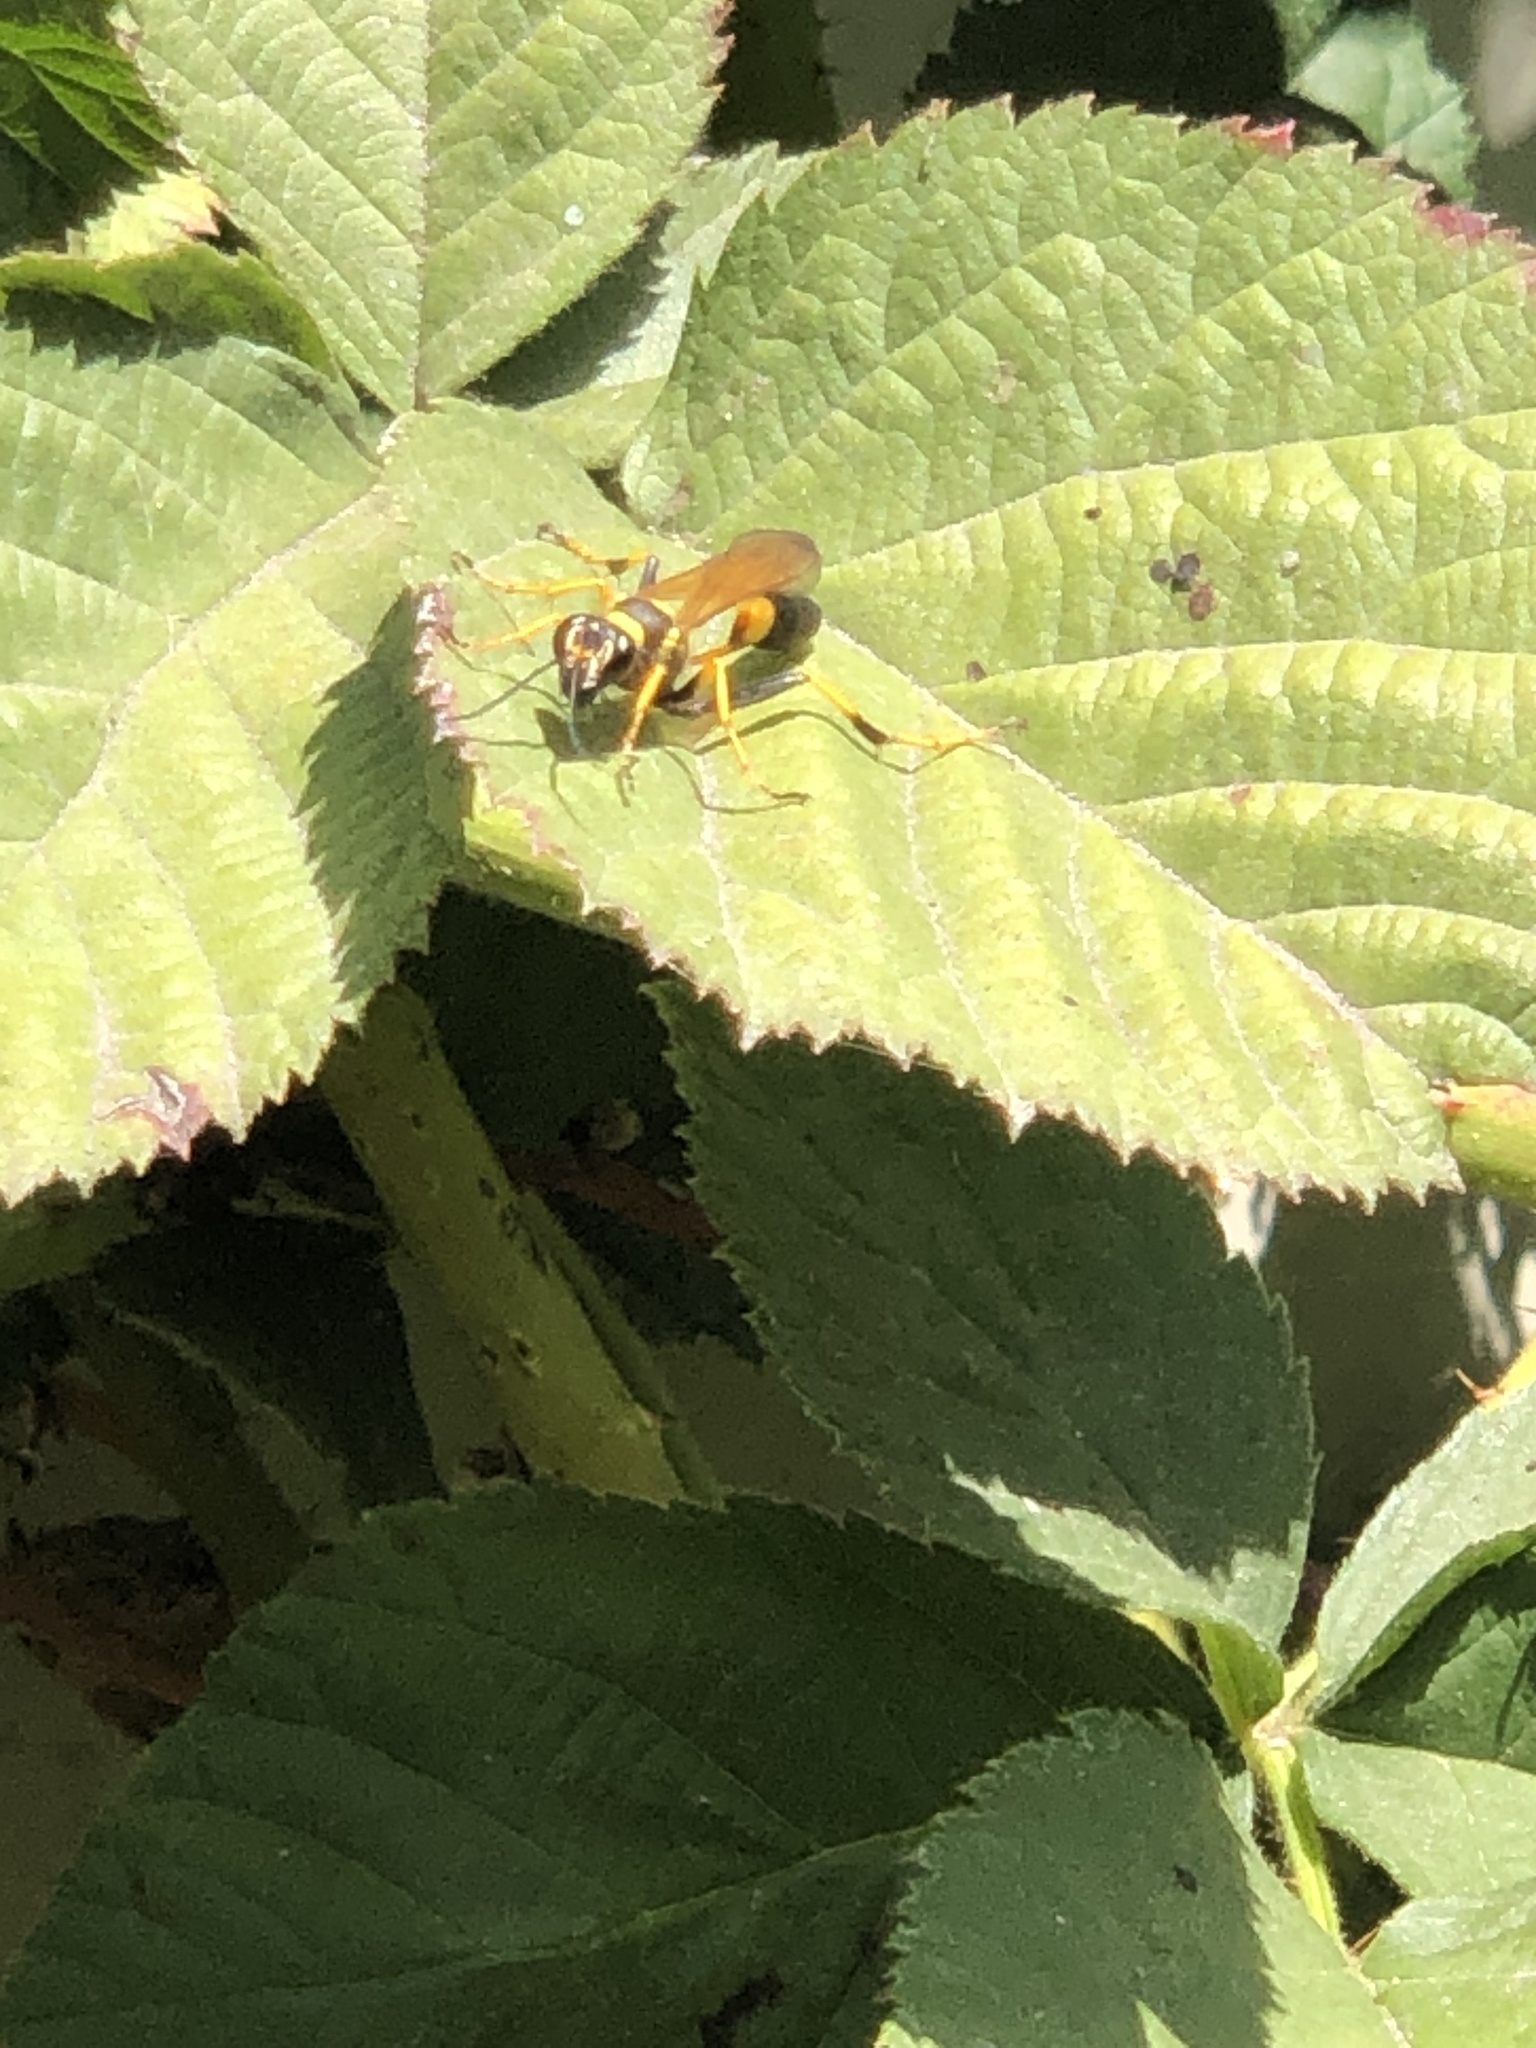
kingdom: Animalia
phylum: Arthropoda
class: Insecta
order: Hymenoptera
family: Sphecidae
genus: Sceliphron
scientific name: Sceliphron caementarium
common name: Mud dauber
